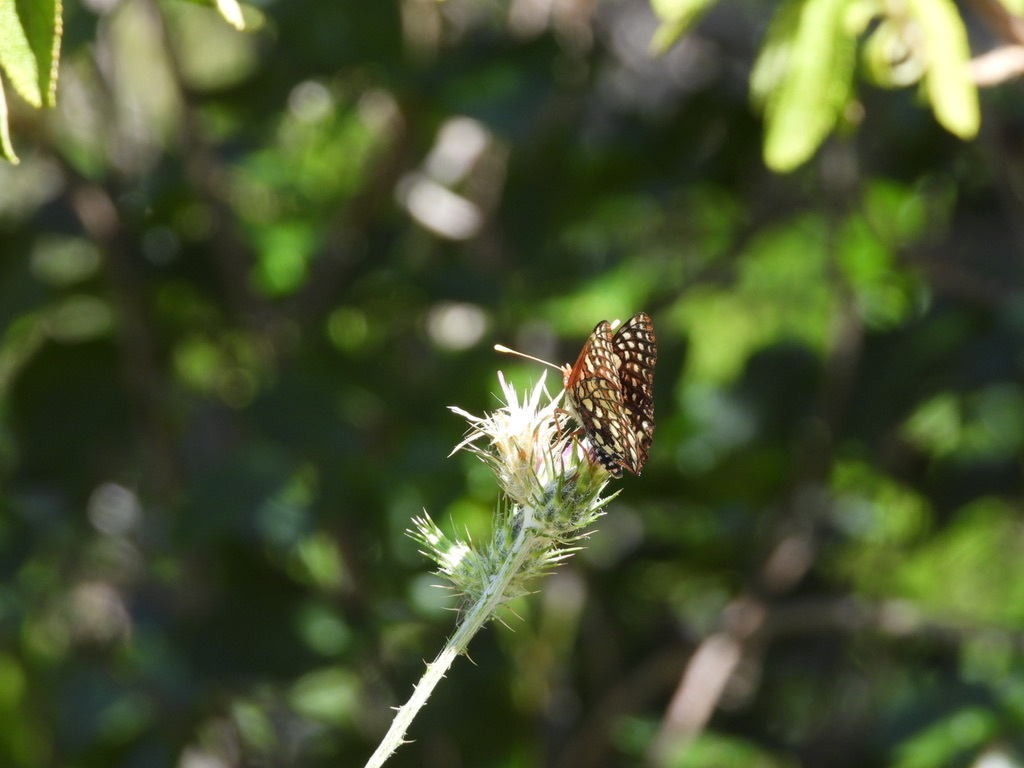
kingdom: Animalia
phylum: Arthropoda
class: Insecta
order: Lepidoptera
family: Nymphalidae
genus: Occidryas
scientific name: Occidryas chalcedona
